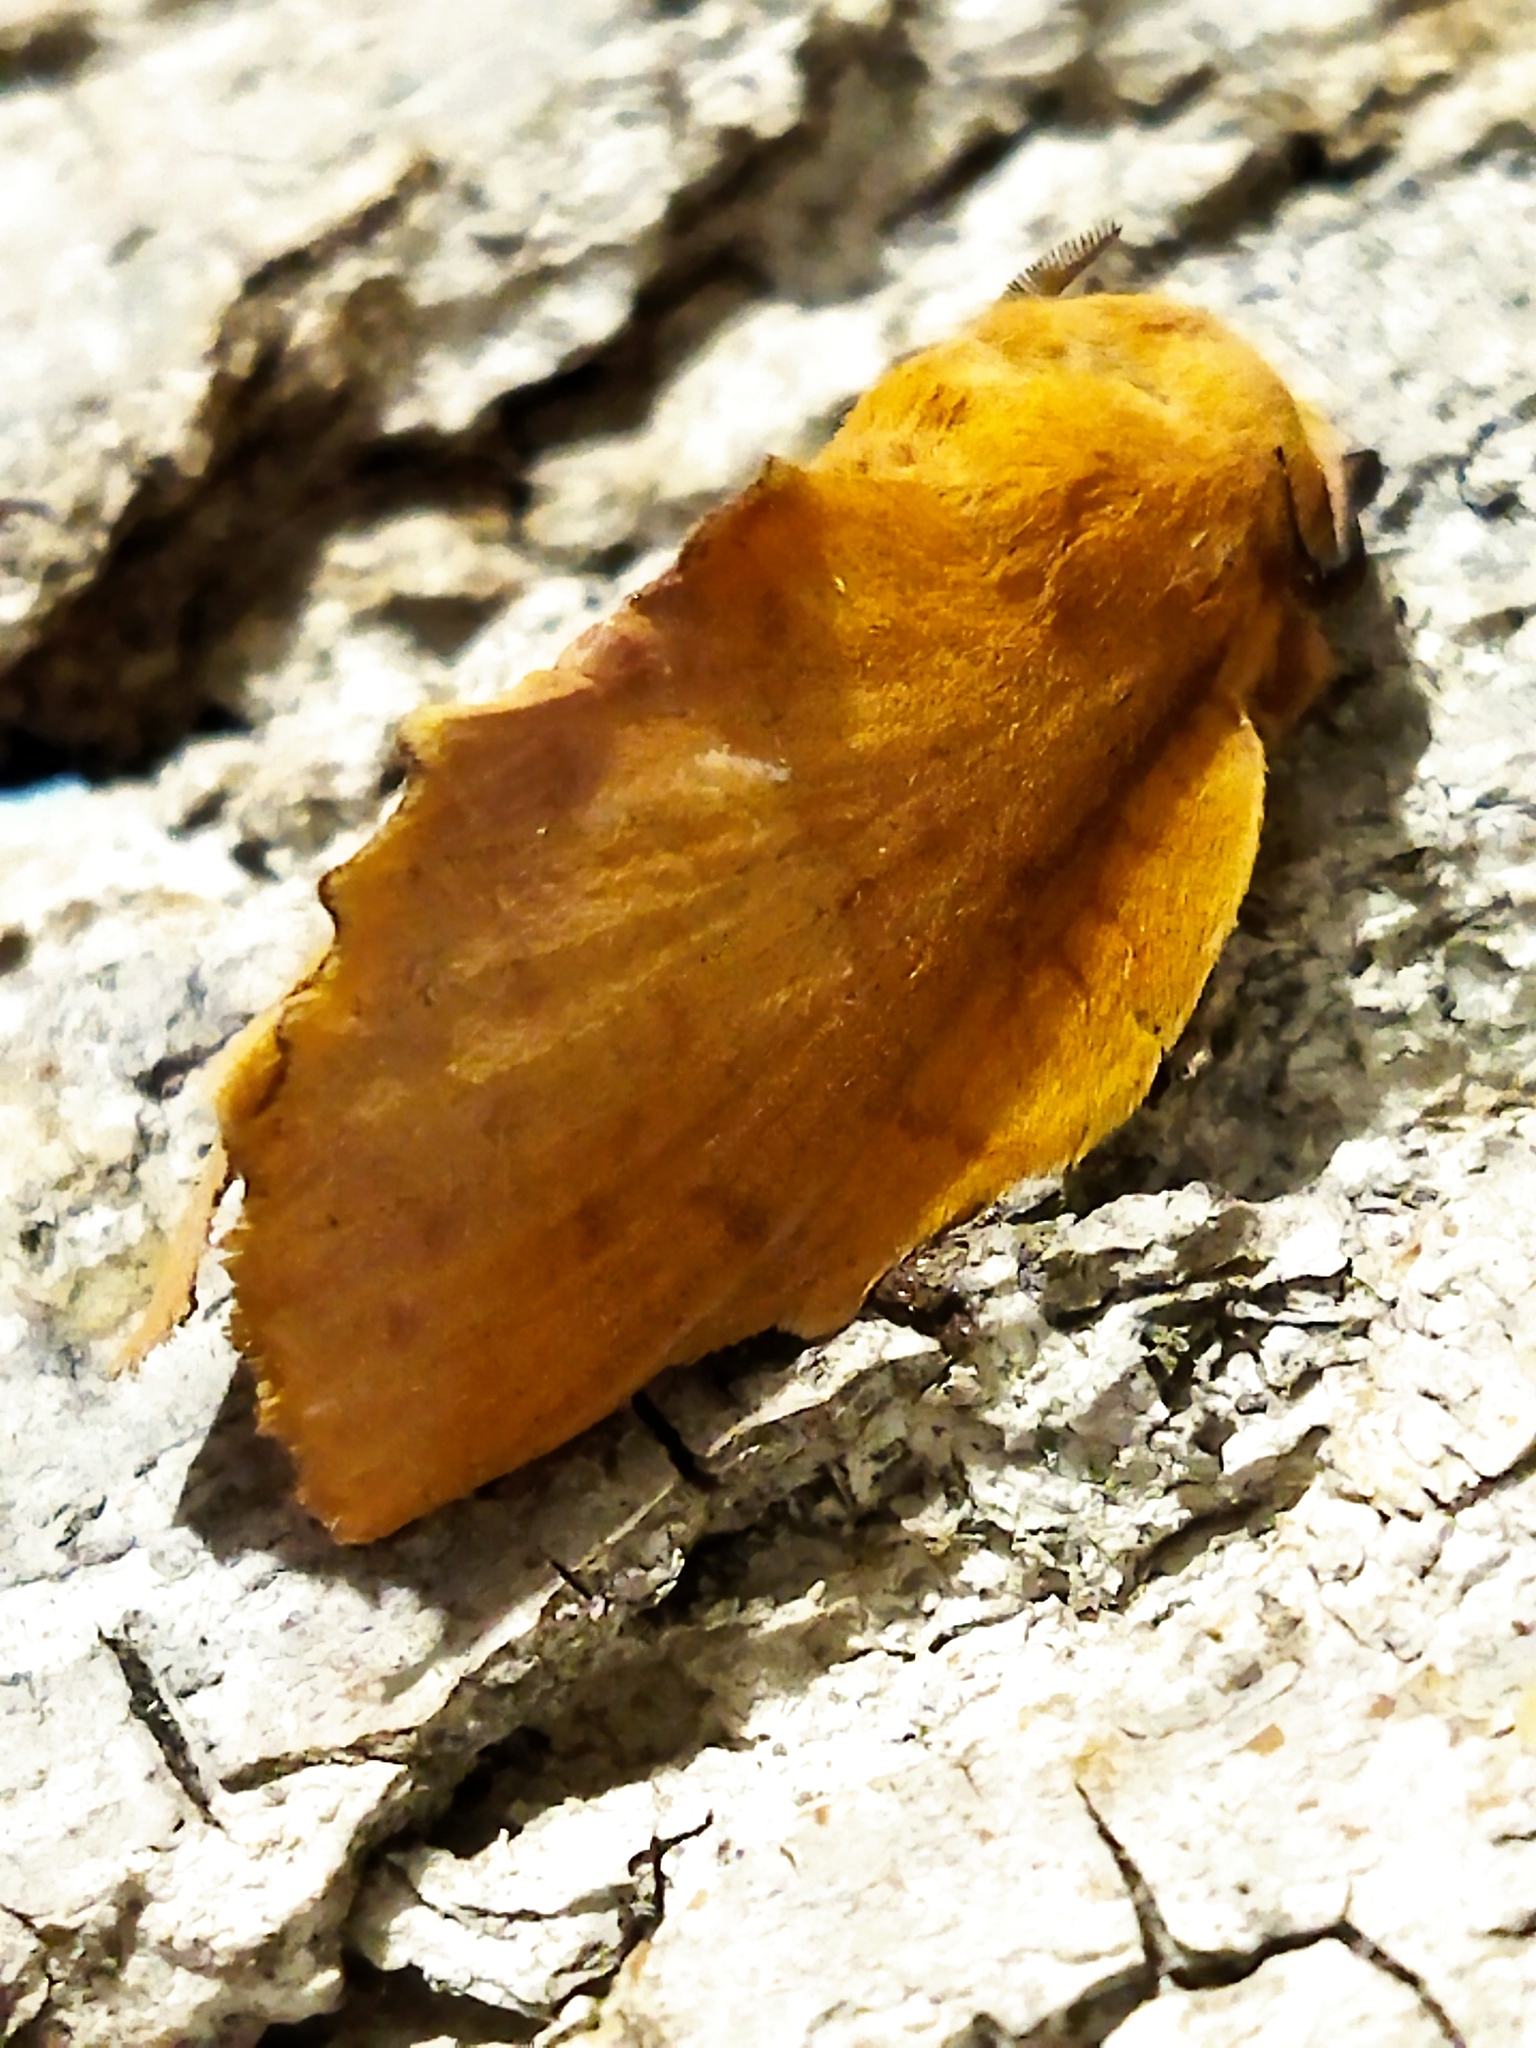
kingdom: Animalia
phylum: Arthropoda
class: Insecta
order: Lepidoptera
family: Lasiocampidae
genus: Gastropacha
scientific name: Gastropacha quercifolia
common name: Lappet
